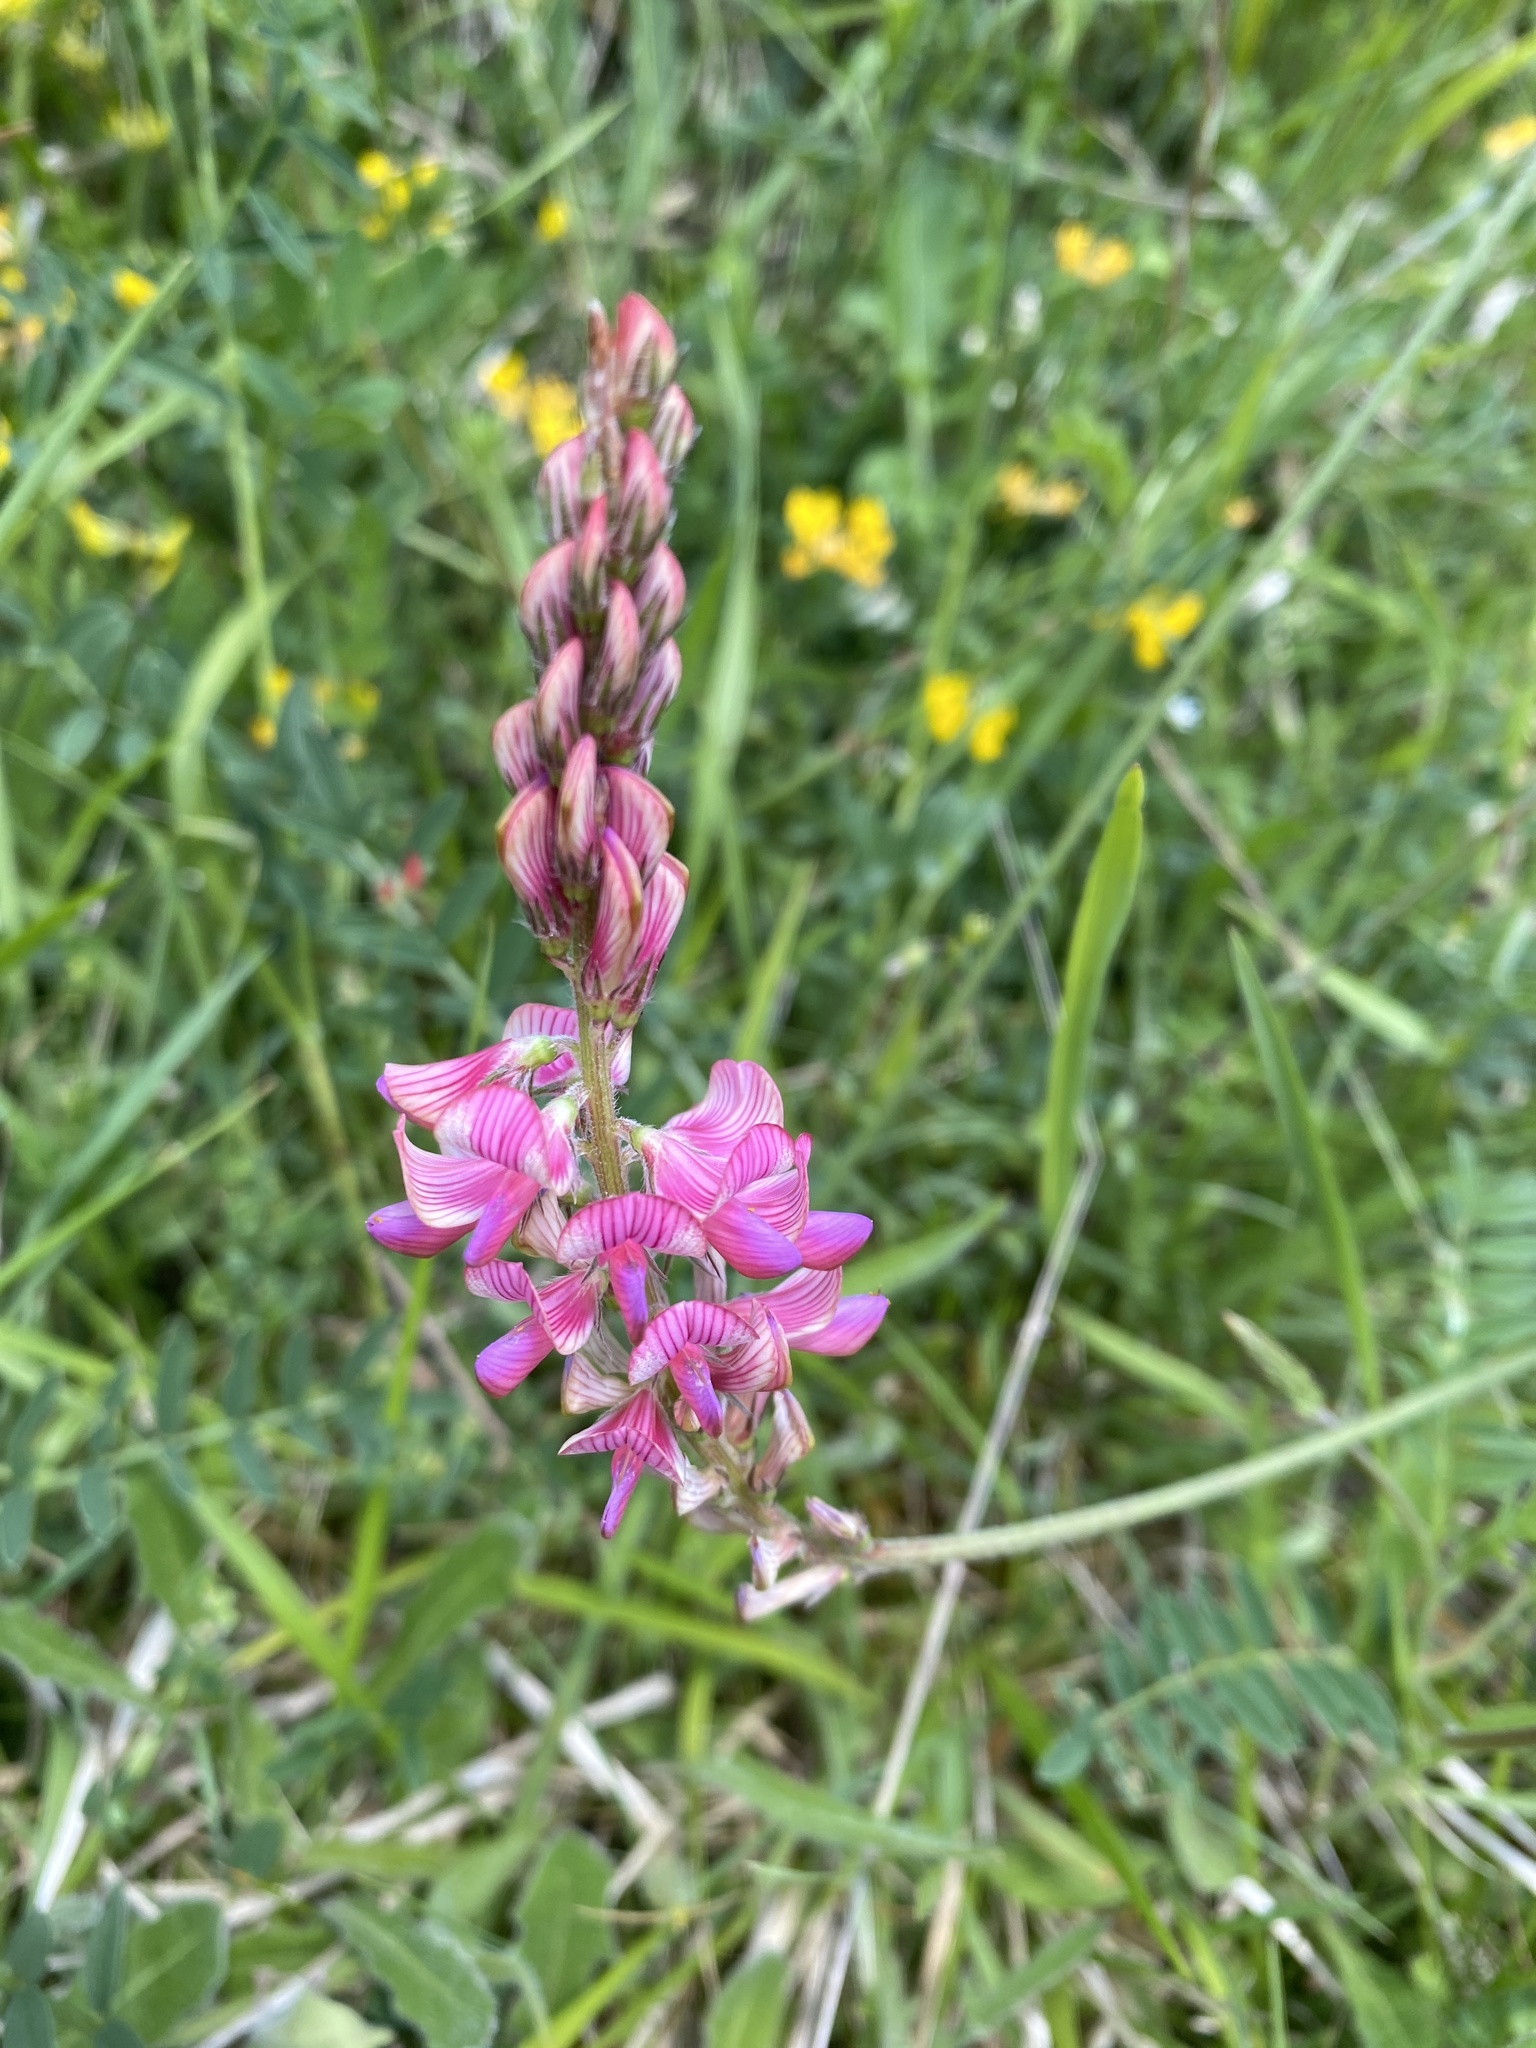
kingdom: Plantae
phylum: Tracheophyta
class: Magnoliopsida
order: Fabales
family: Fabaceae
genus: Onobrychis
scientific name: Onobrychis viciifolia
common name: Sainfoin
